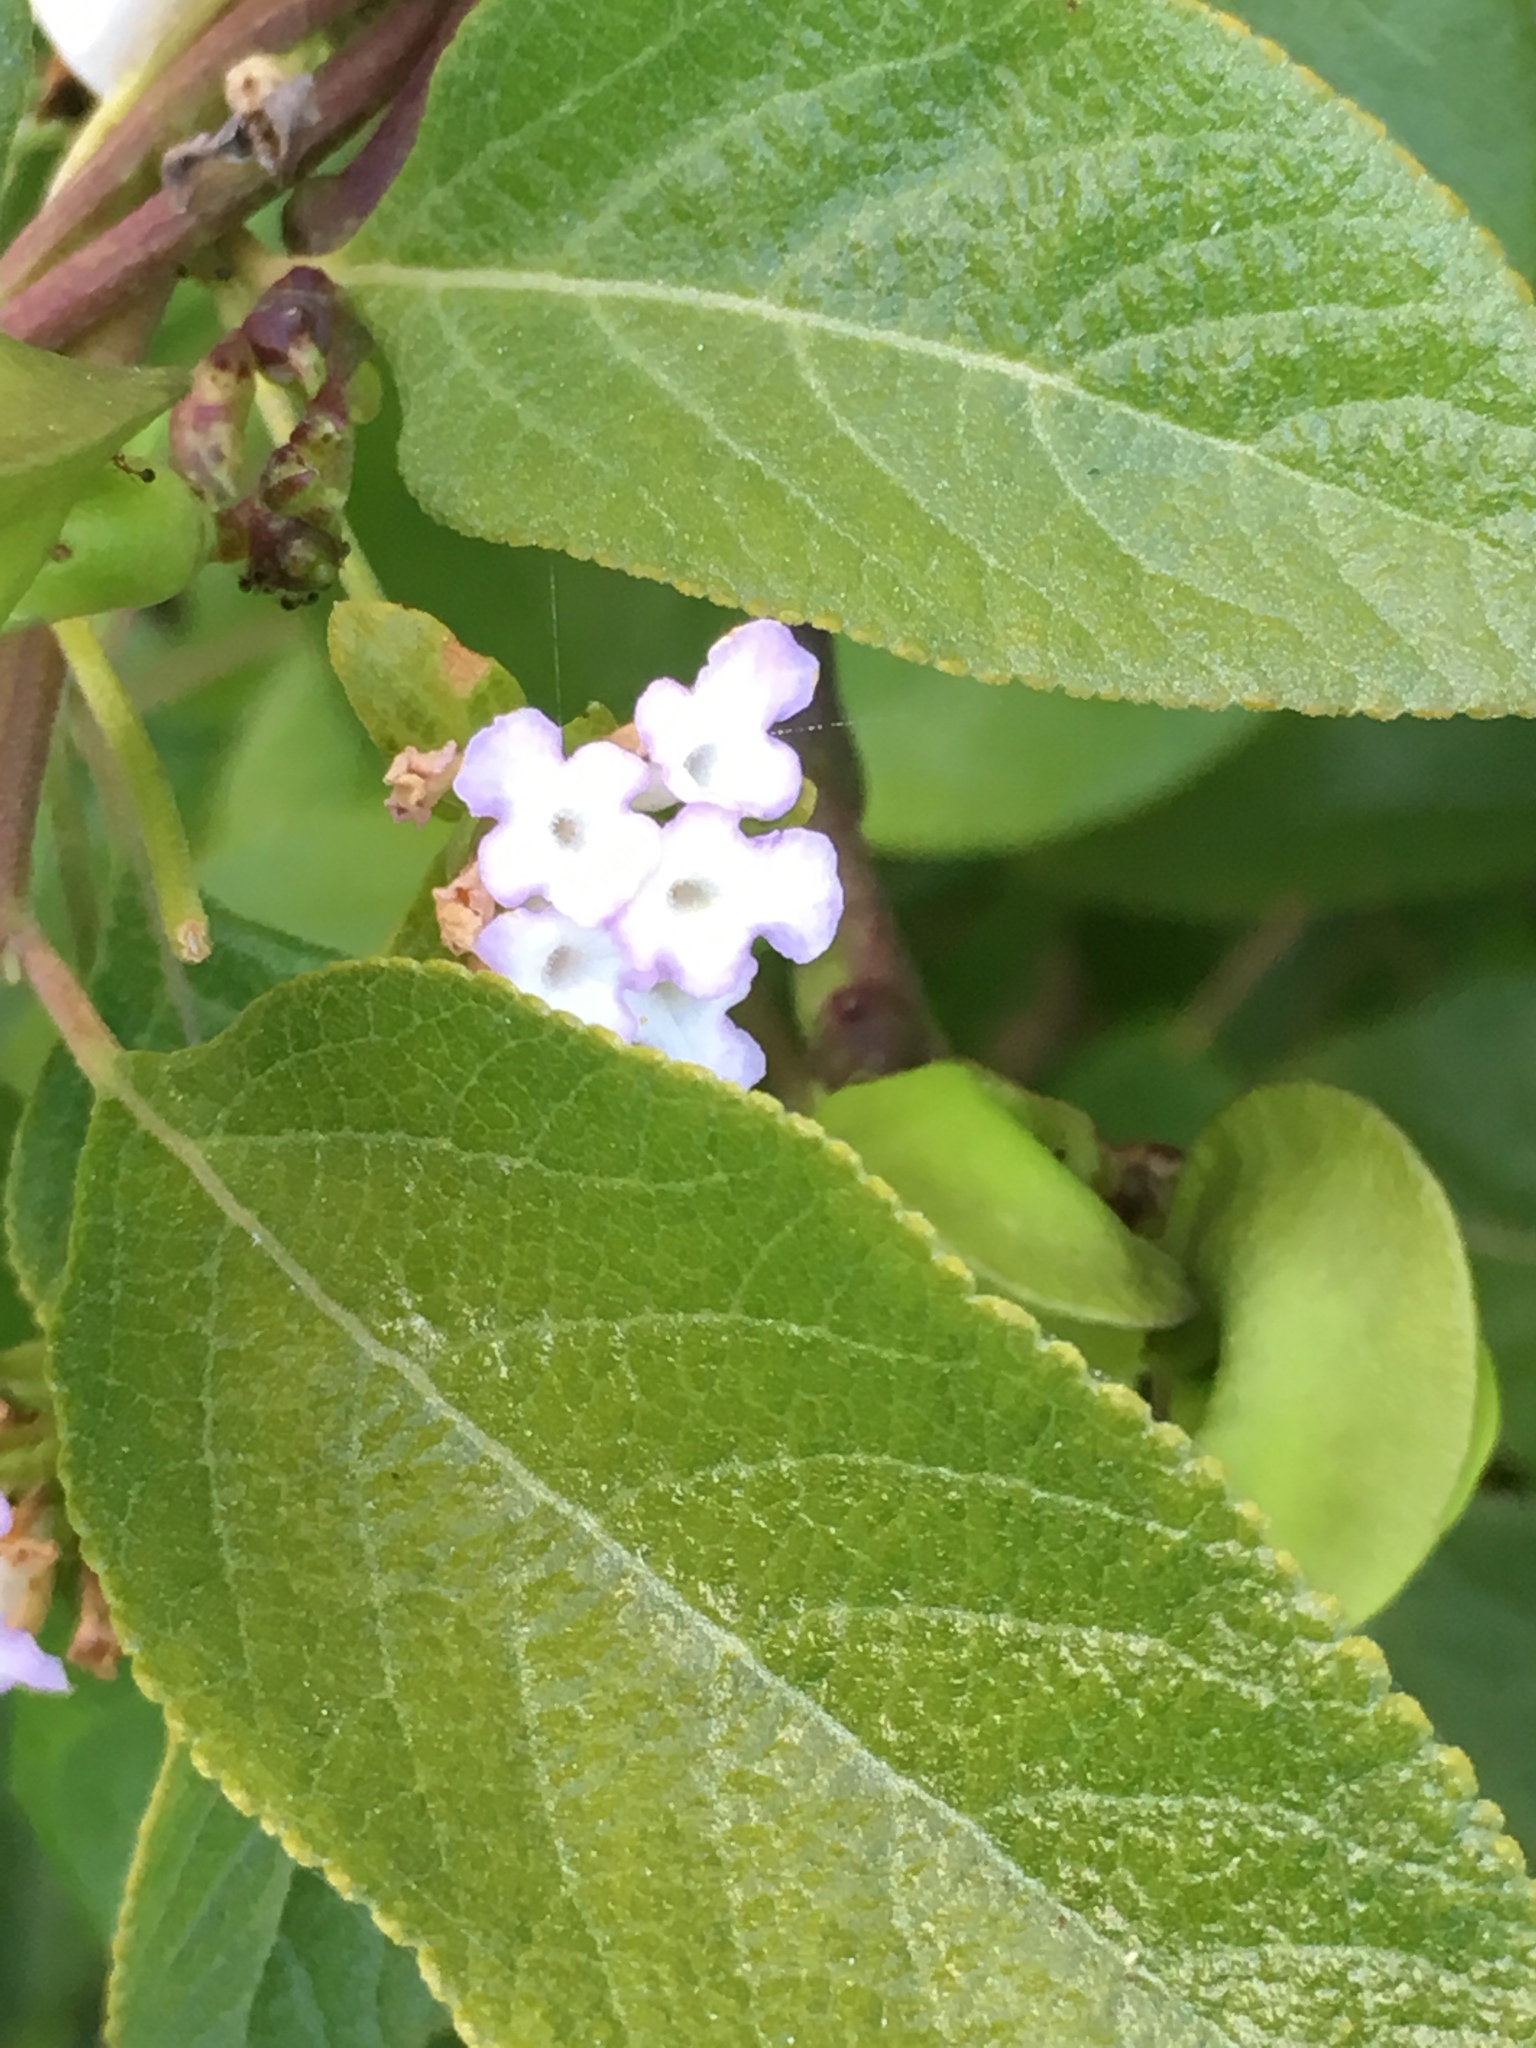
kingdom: Plantae
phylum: Tracheophyta
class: Magnoliopsida
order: Lamiales
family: Verbenaceae
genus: Lantana
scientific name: Lantana involucrata
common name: Black sage
